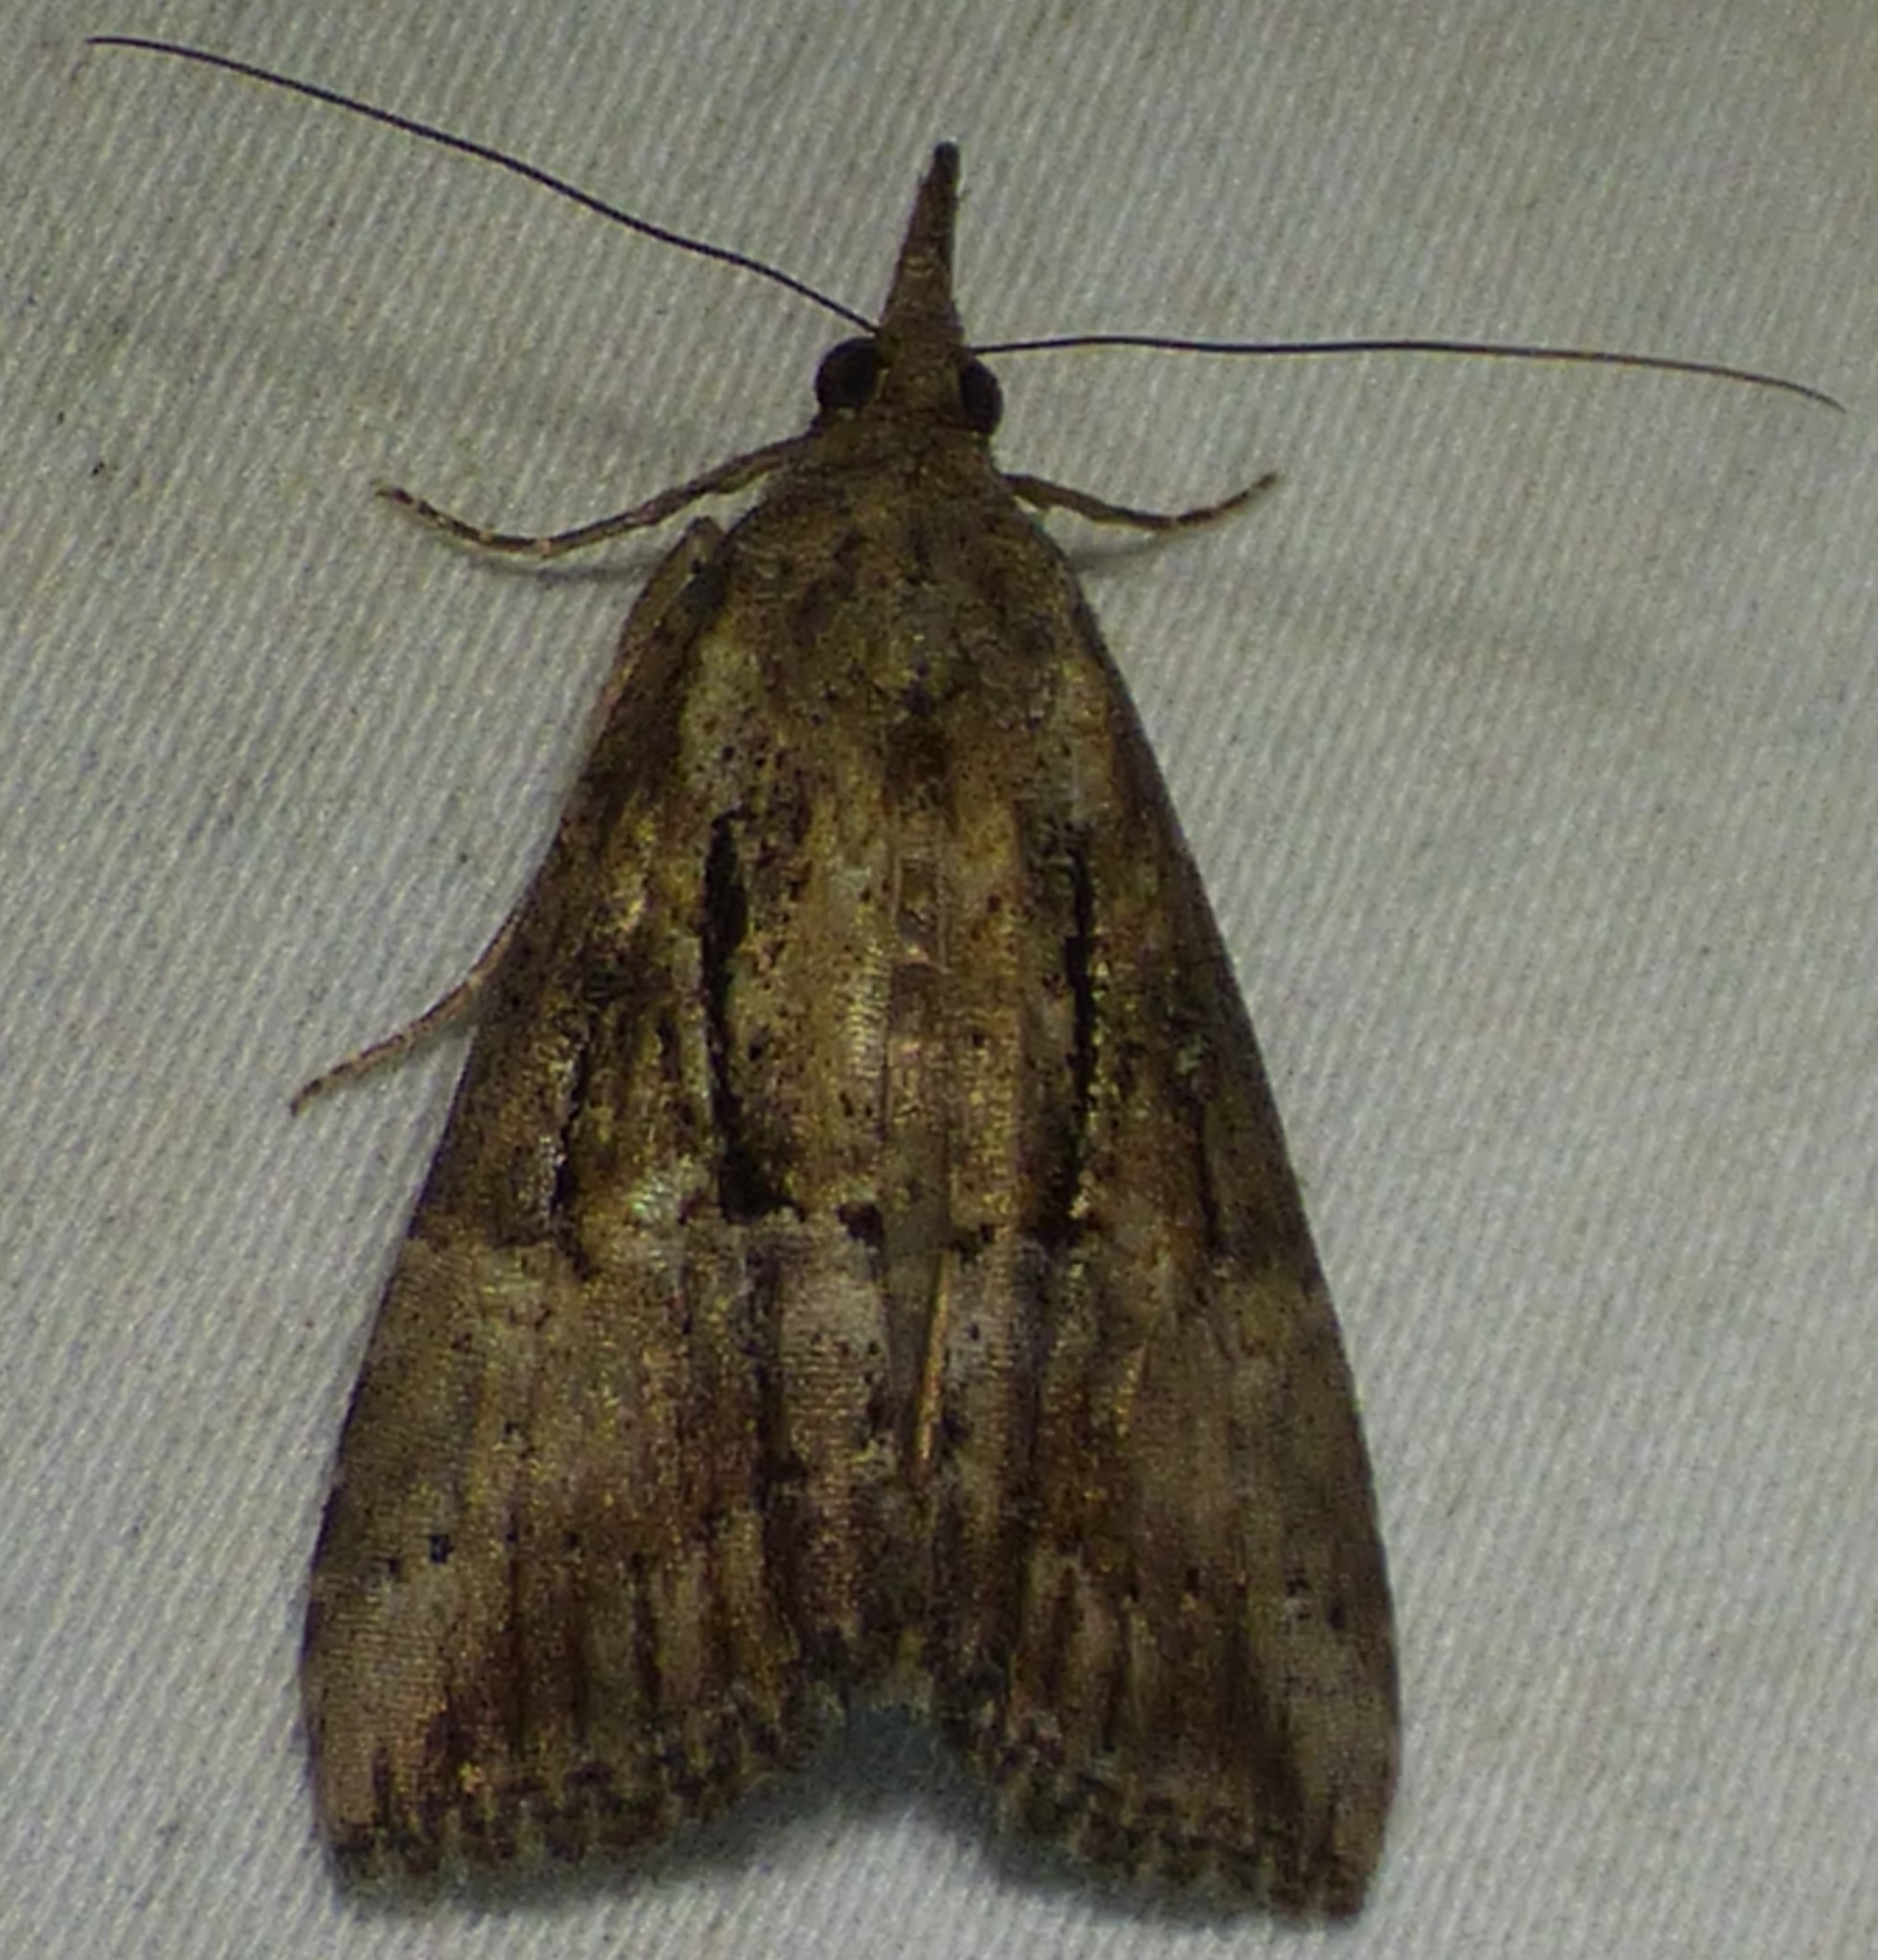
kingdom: Animalia
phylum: Arthropoda
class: Insecta
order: Lepidoptera
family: Erebidae
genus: Hypena
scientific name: Hypena scabra
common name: Green cloverworm
